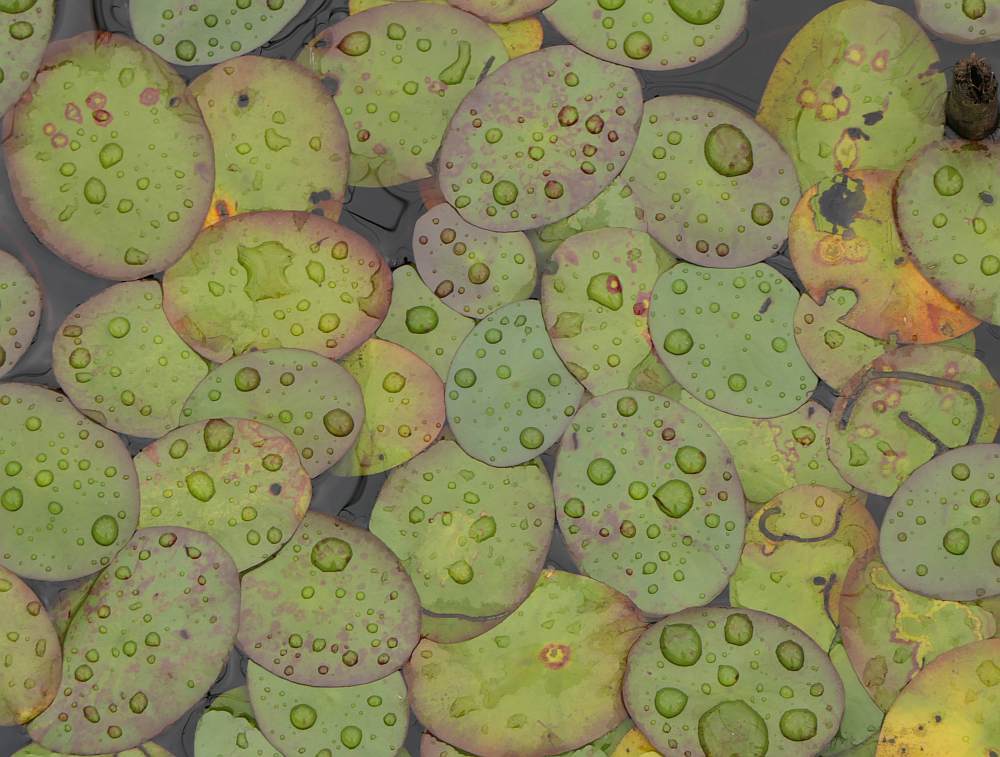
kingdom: Plantae
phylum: Tracheophyta
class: Magnoliopsida
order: Nymphaeales
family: Cabombaceae
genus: Brasenia
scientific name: Brasenia schreberi
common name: Water-shield
